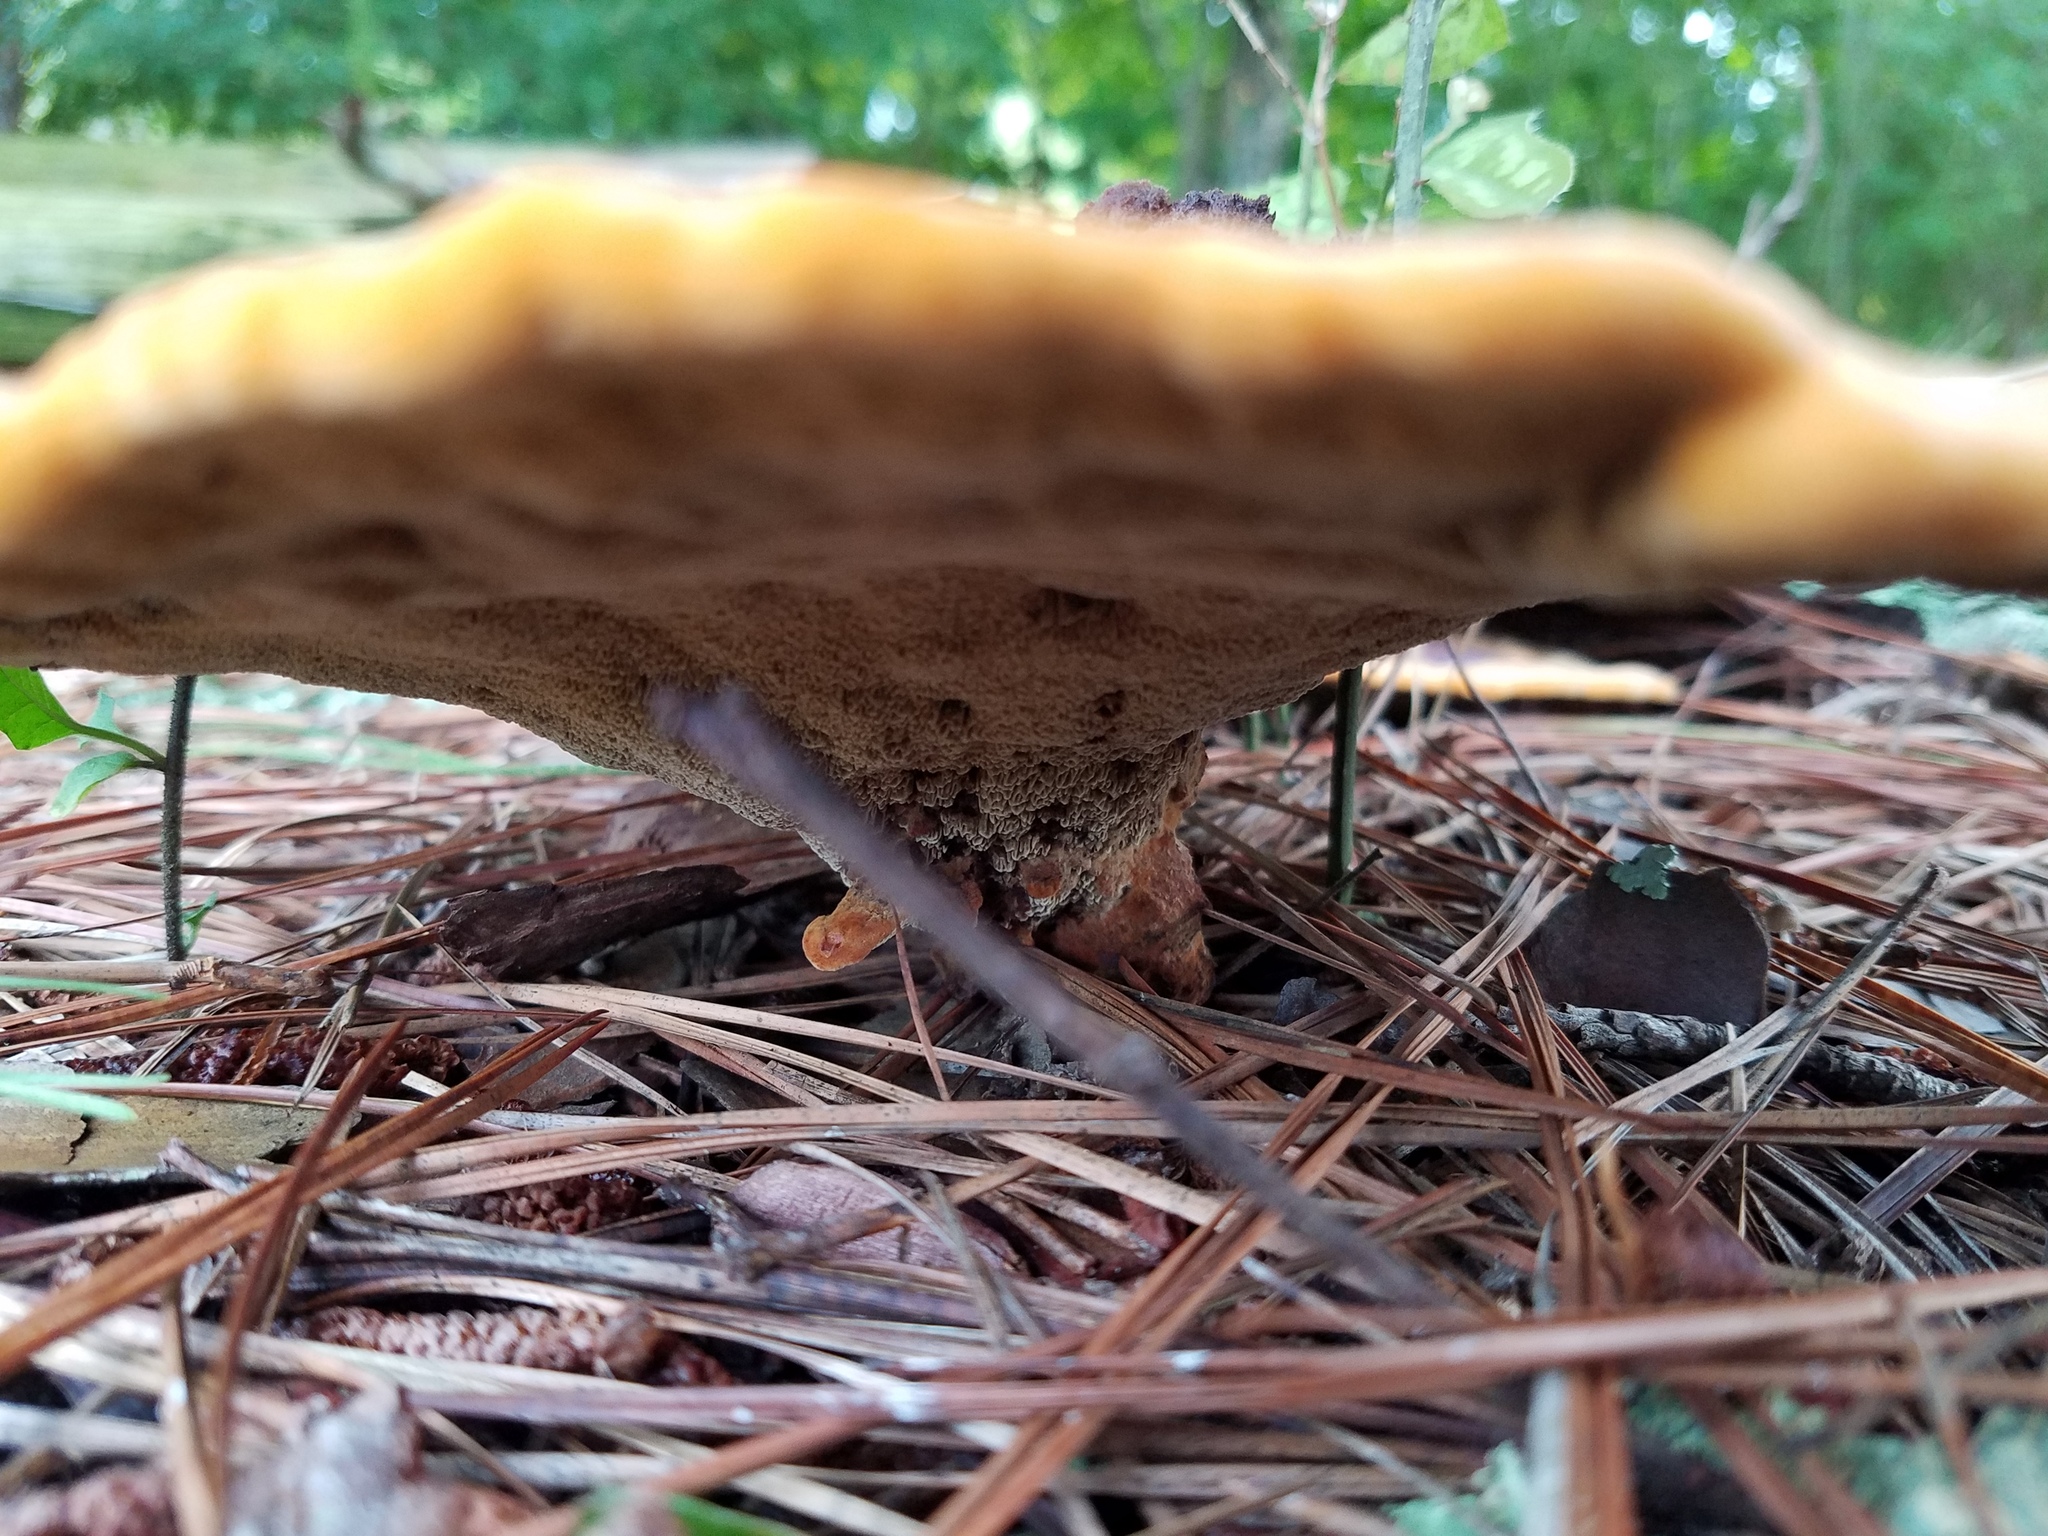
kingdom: Fungi
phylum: Basidiomycota
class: Agaricomycetes
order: Polyporales
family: Laetiporaceae
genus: Phaeolus
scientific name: Phaeolus schweinitzii
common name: Dyer's mazegill
